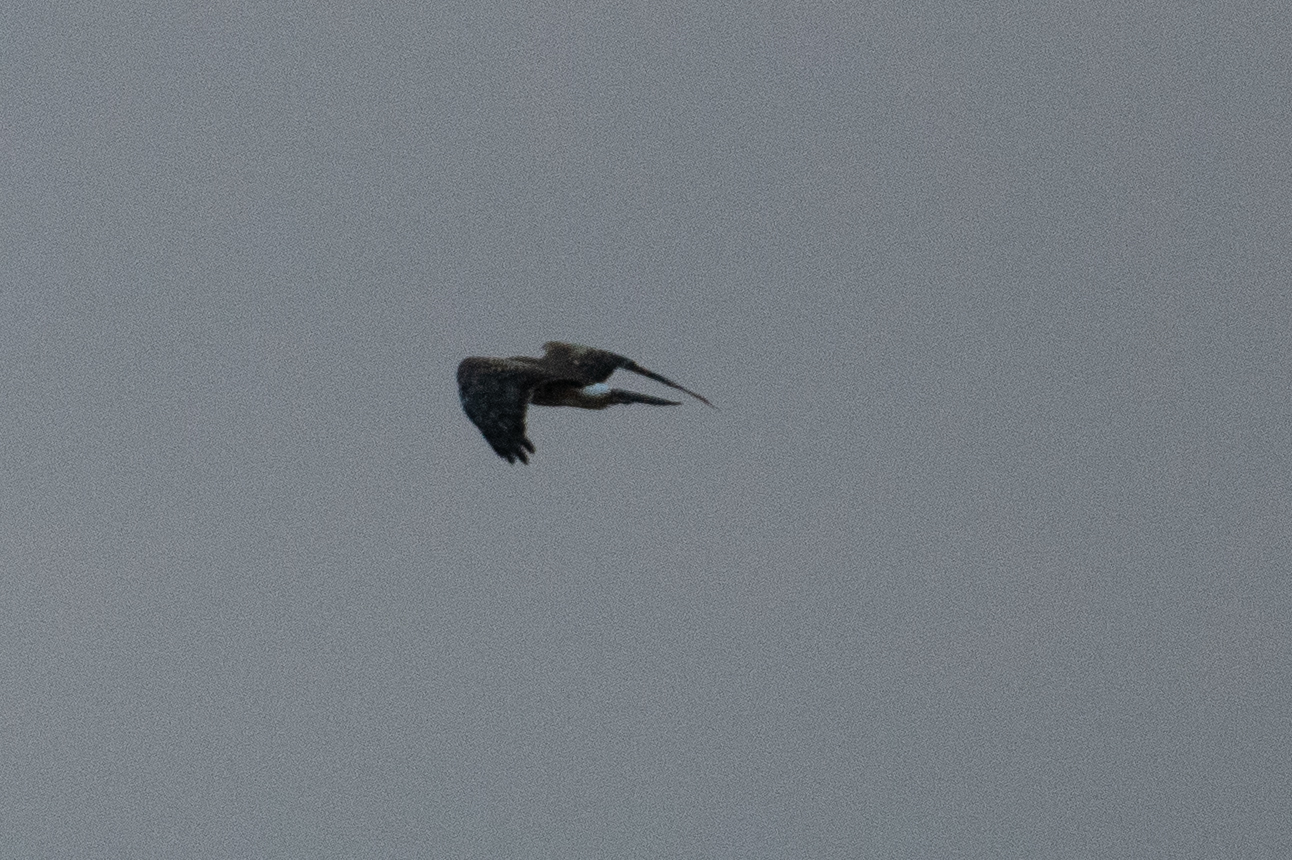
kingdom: Animalia
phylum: Chordata
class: Aves
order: Accipitriformes
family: Accipitridae
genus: Circus
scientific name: Circus cyaneus
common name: Hen harrier
